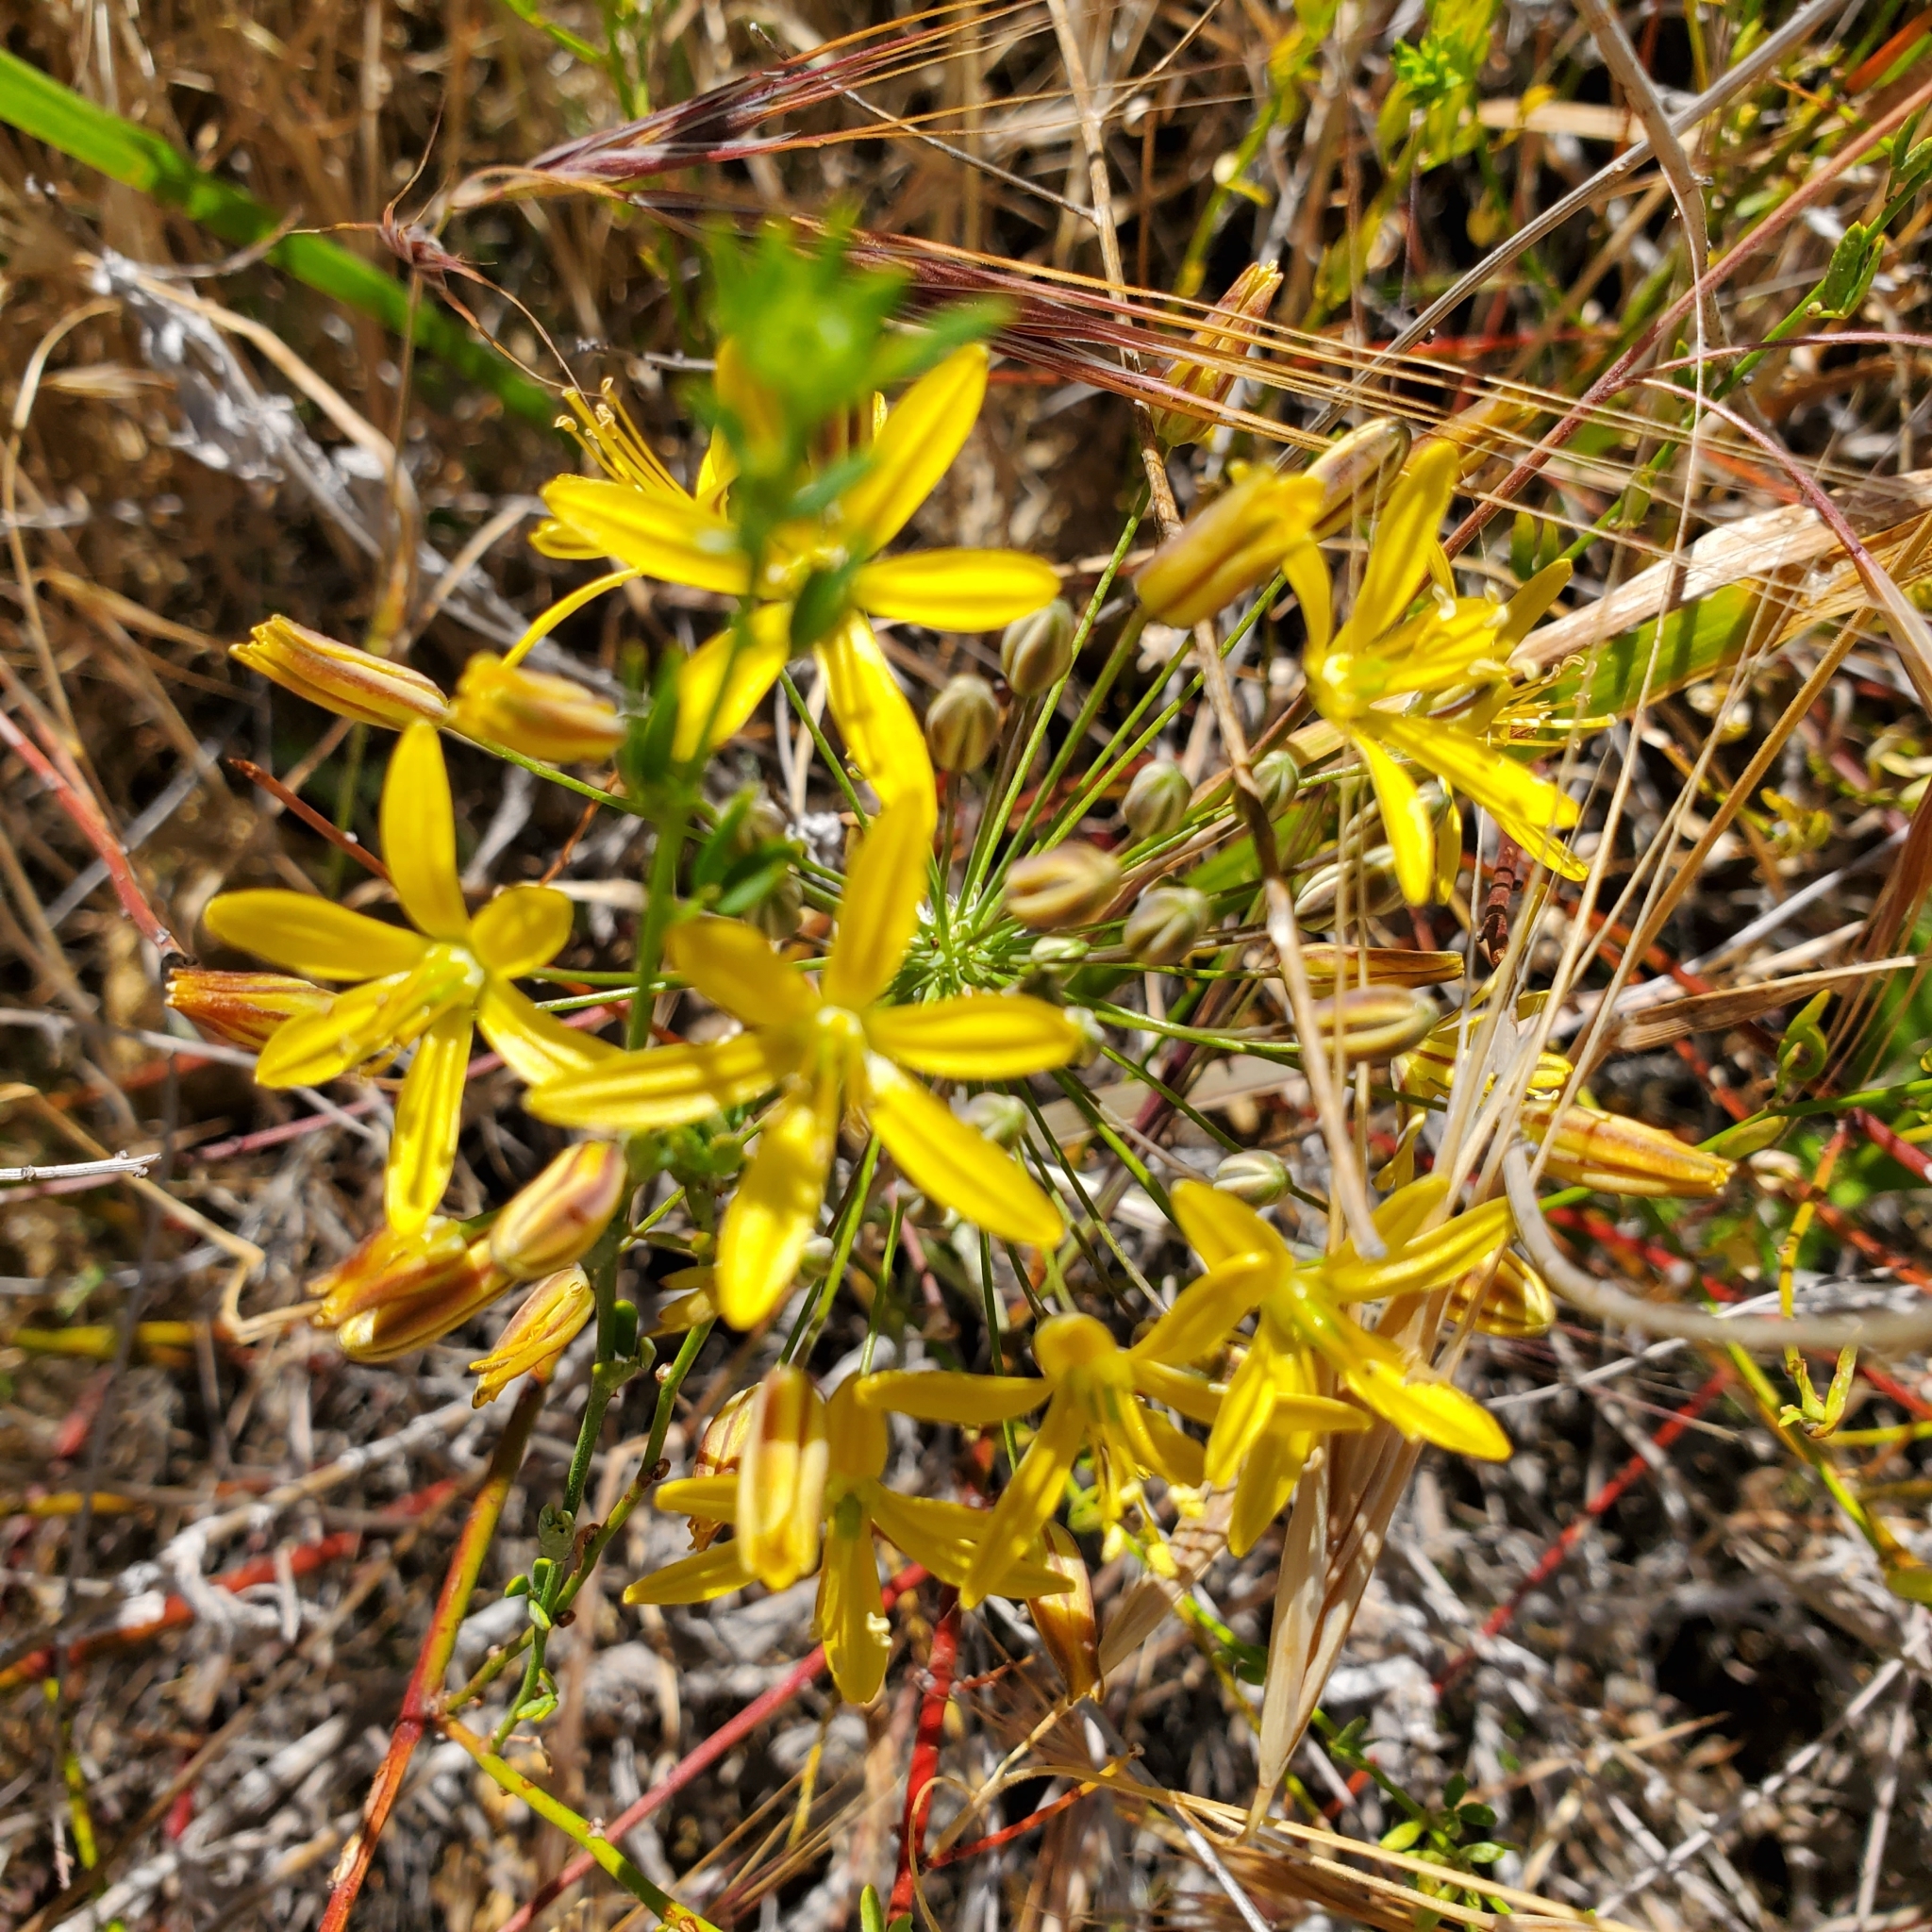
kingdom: Plantae
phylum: Tracheophyta
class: Liliopsida
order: Asparagales
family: Asparagaceae
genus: Bloomeria
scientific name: Bloomeria crocea
